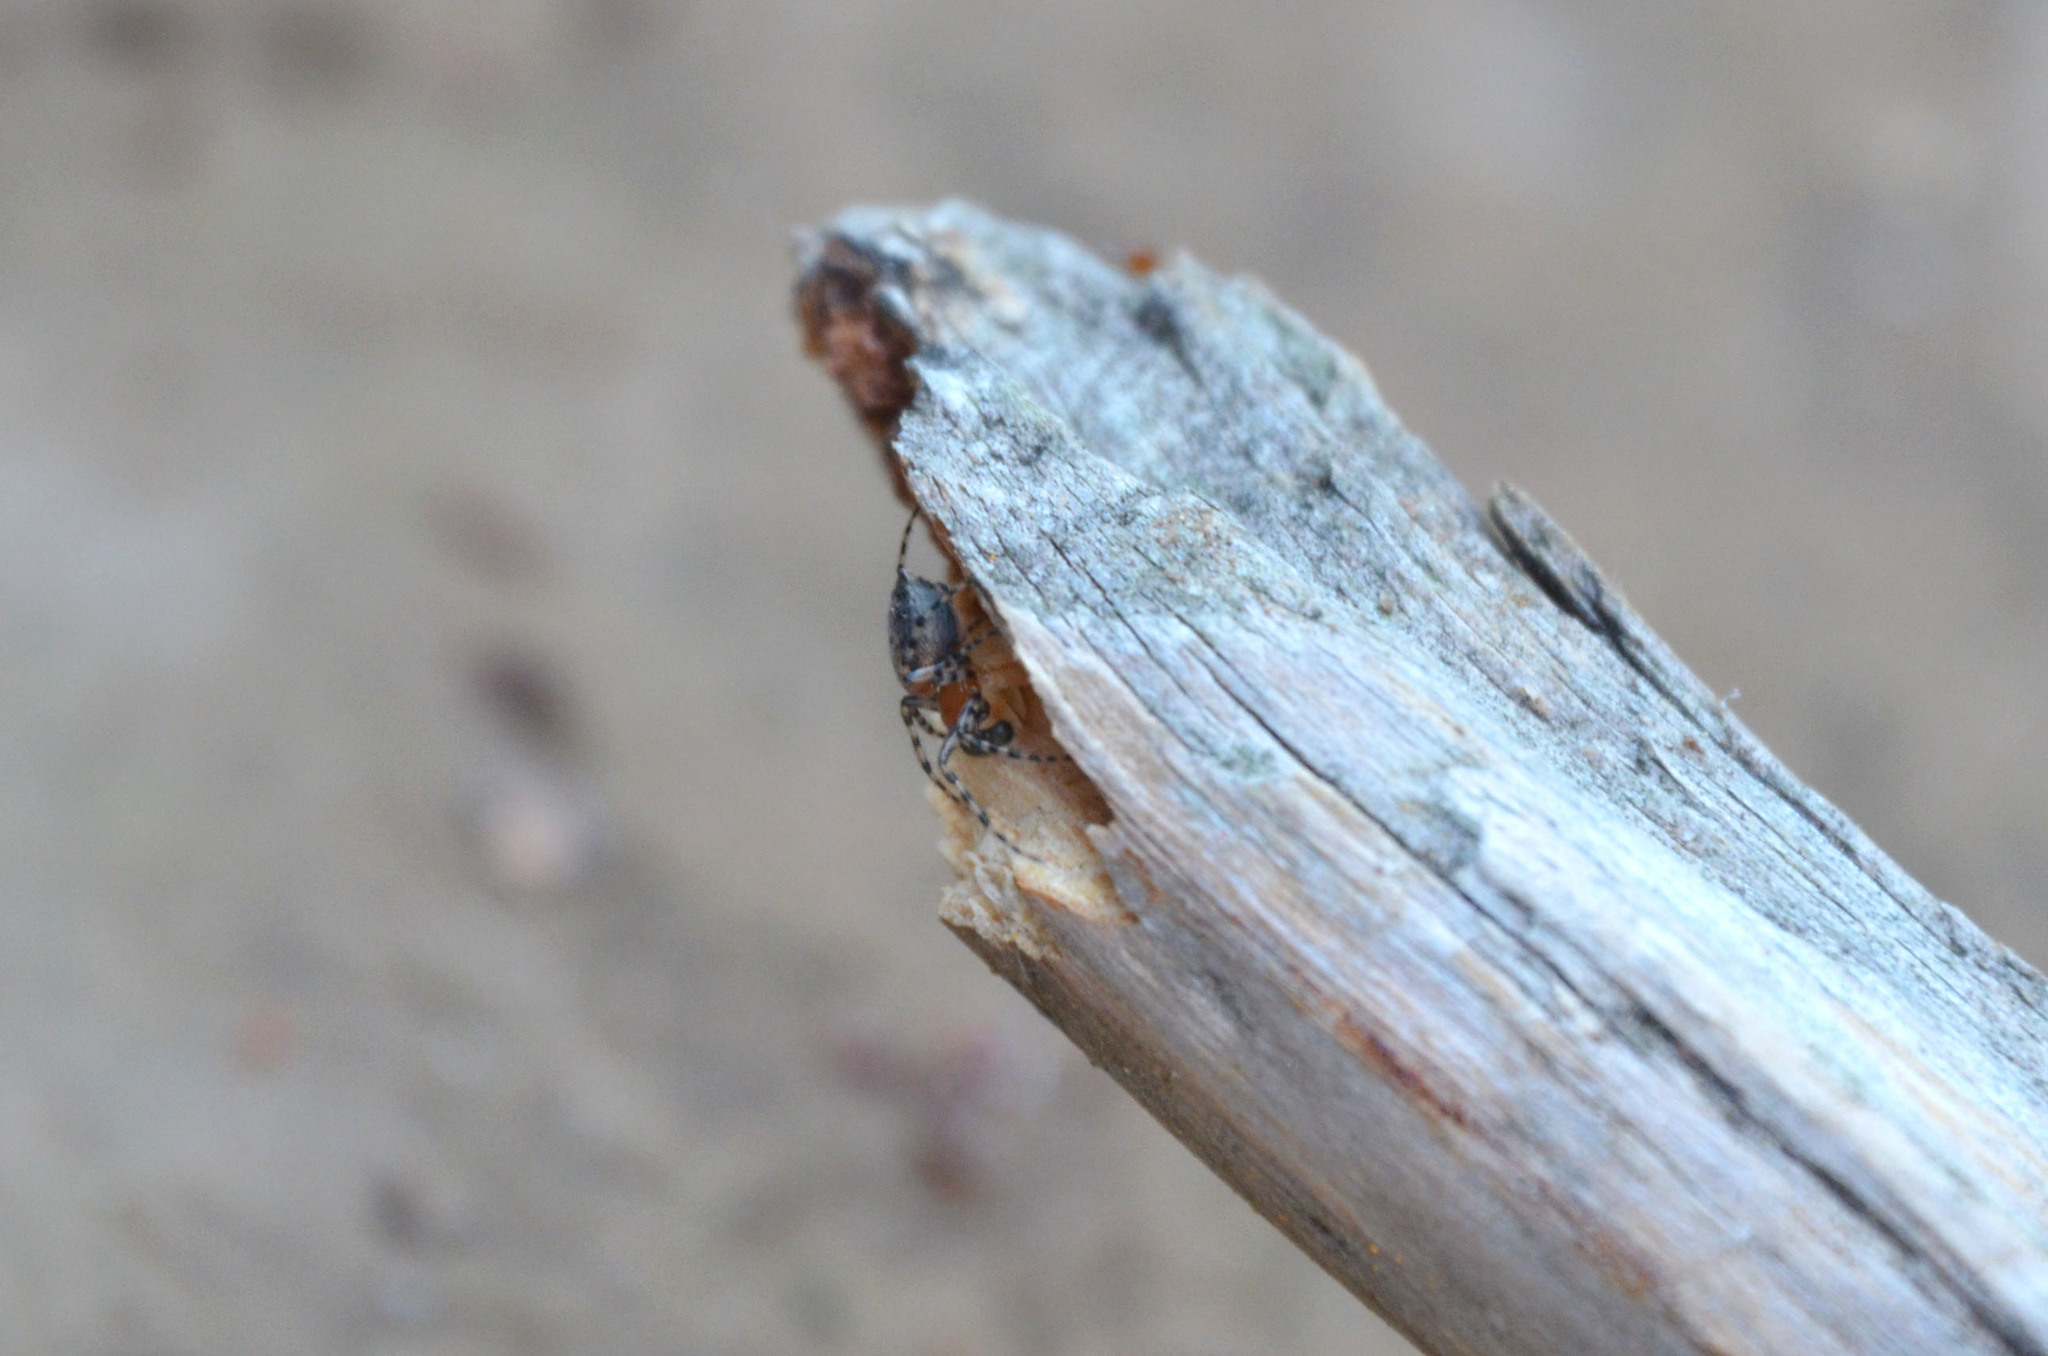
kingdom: Animalia
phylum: Arthropoda
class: Arachnida
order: Araneae
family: Araneidae
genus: Alpaida
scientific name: Alpaida gallardoi
